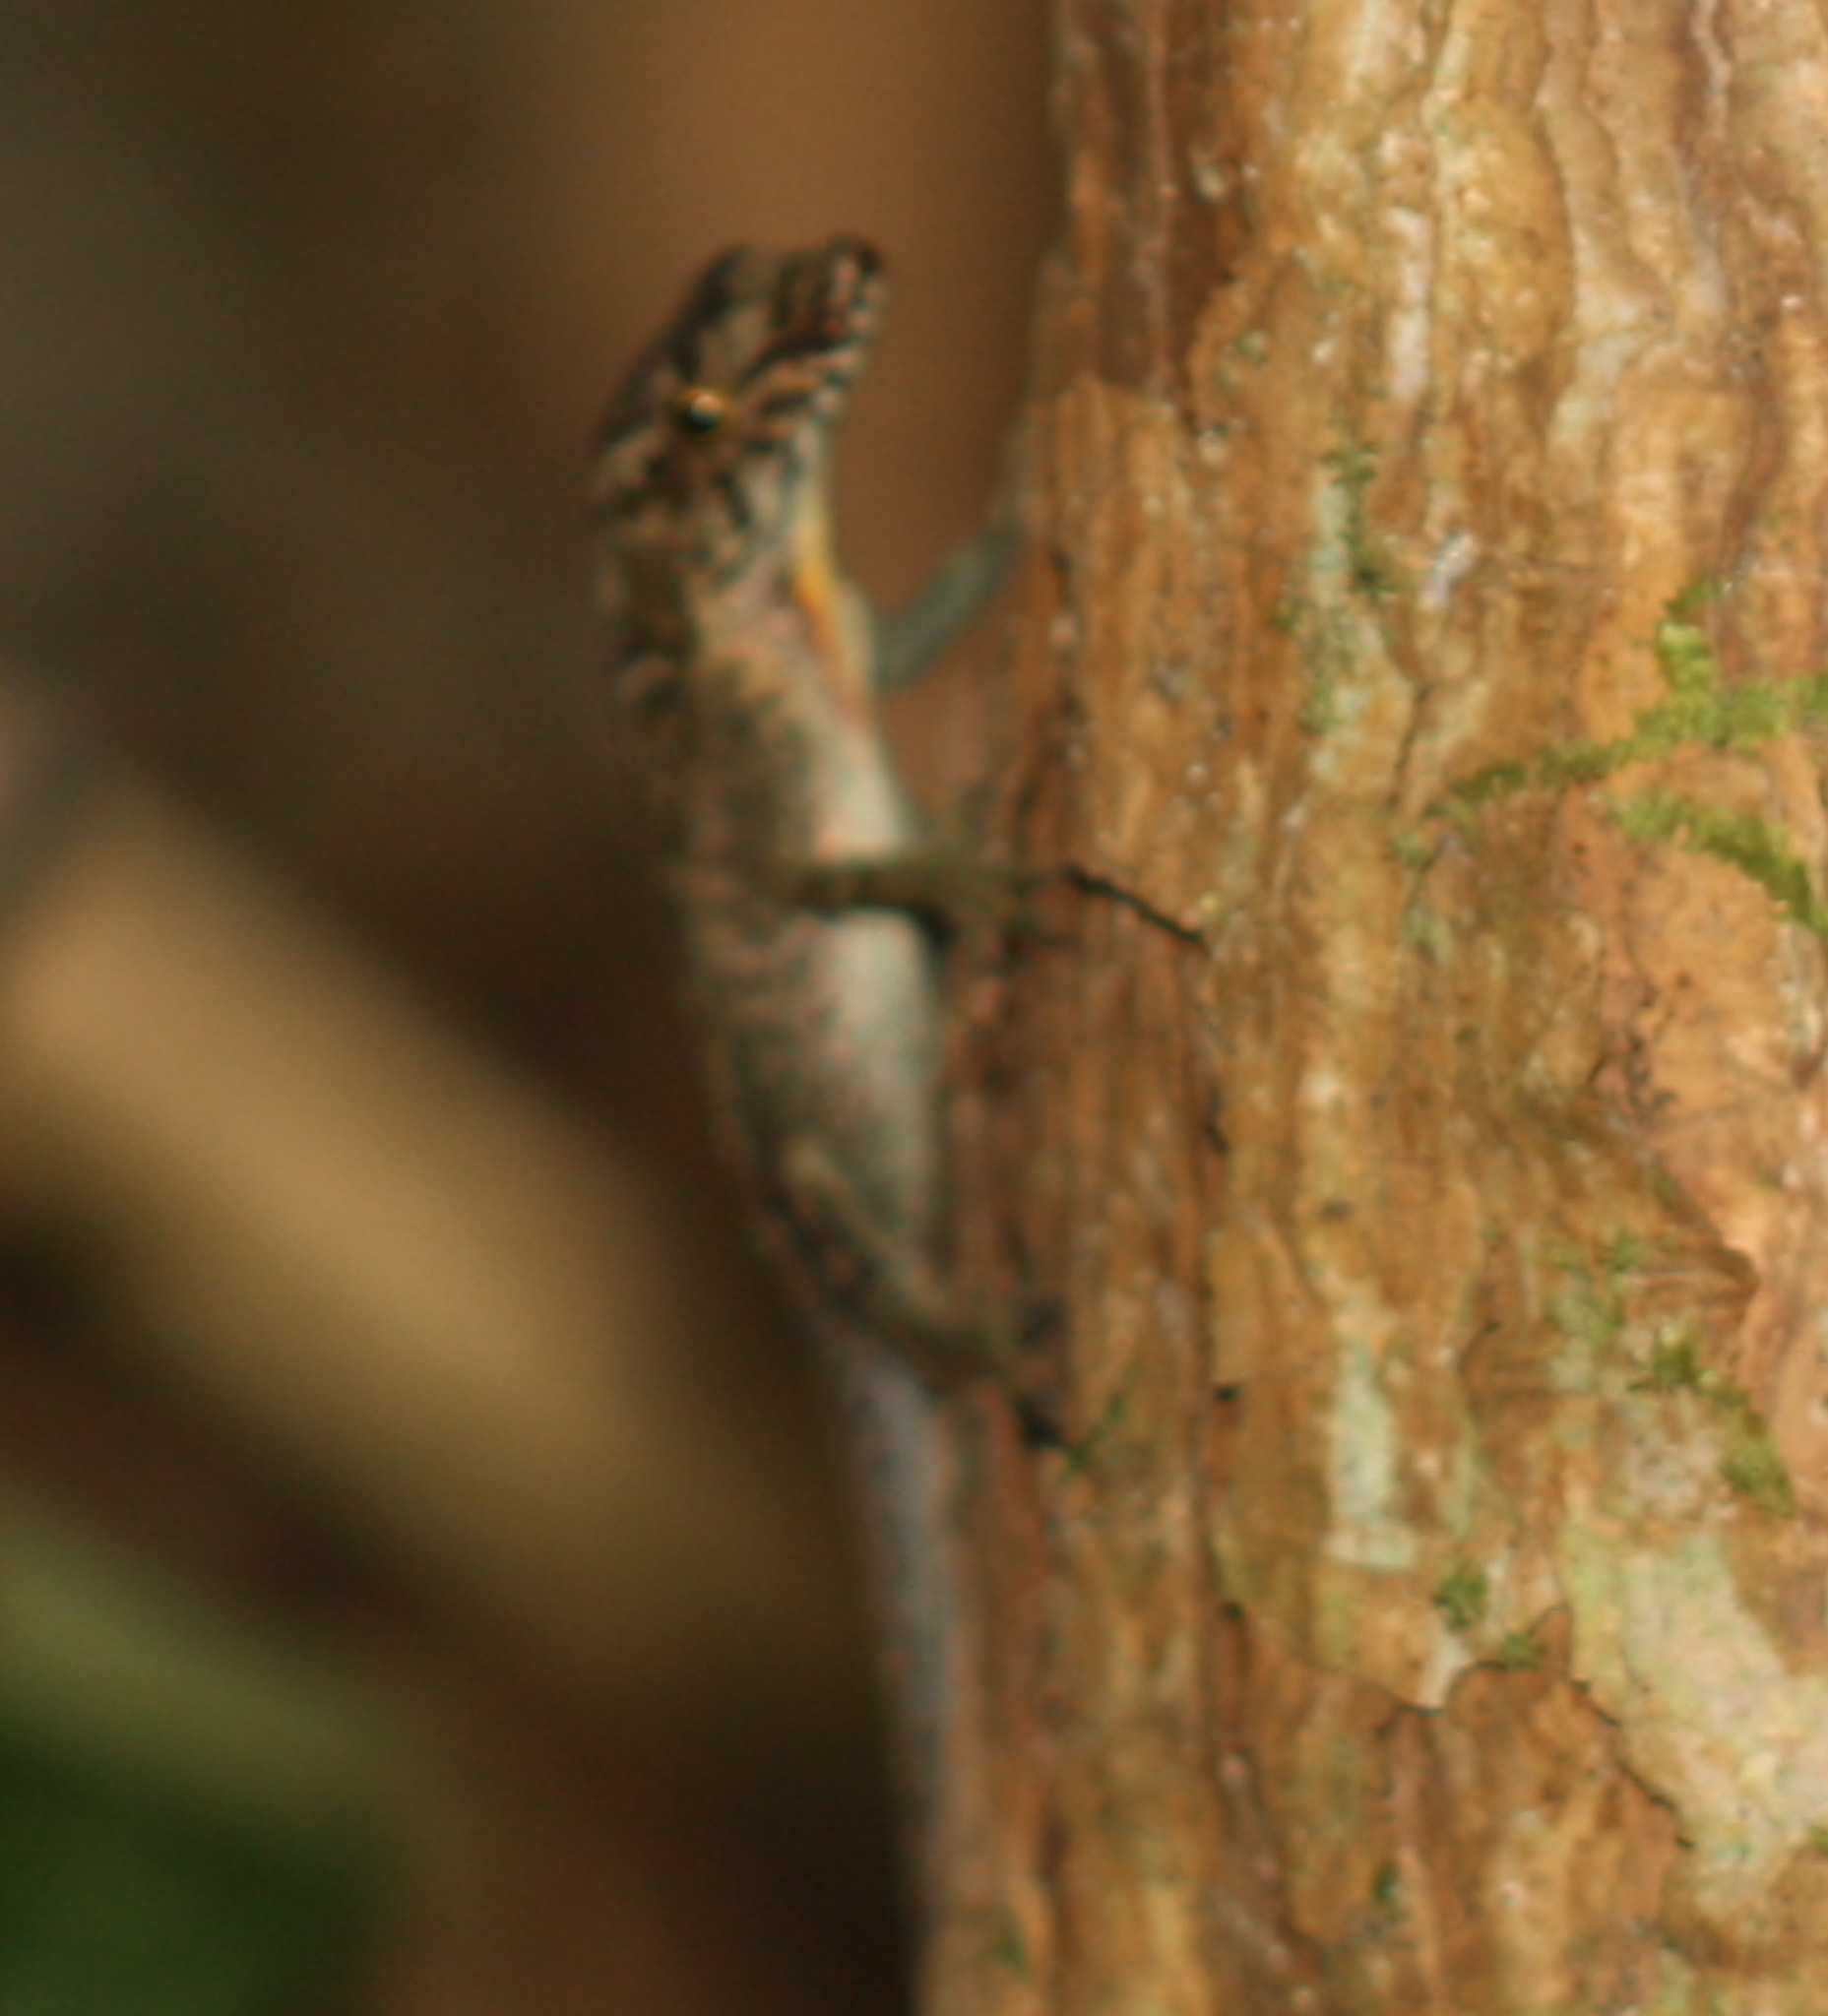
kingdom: Animalia
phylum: Chordata
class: Squamata
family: Dactyloidae
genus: Anolis
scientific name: Anolis humilis
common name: Humble anole
